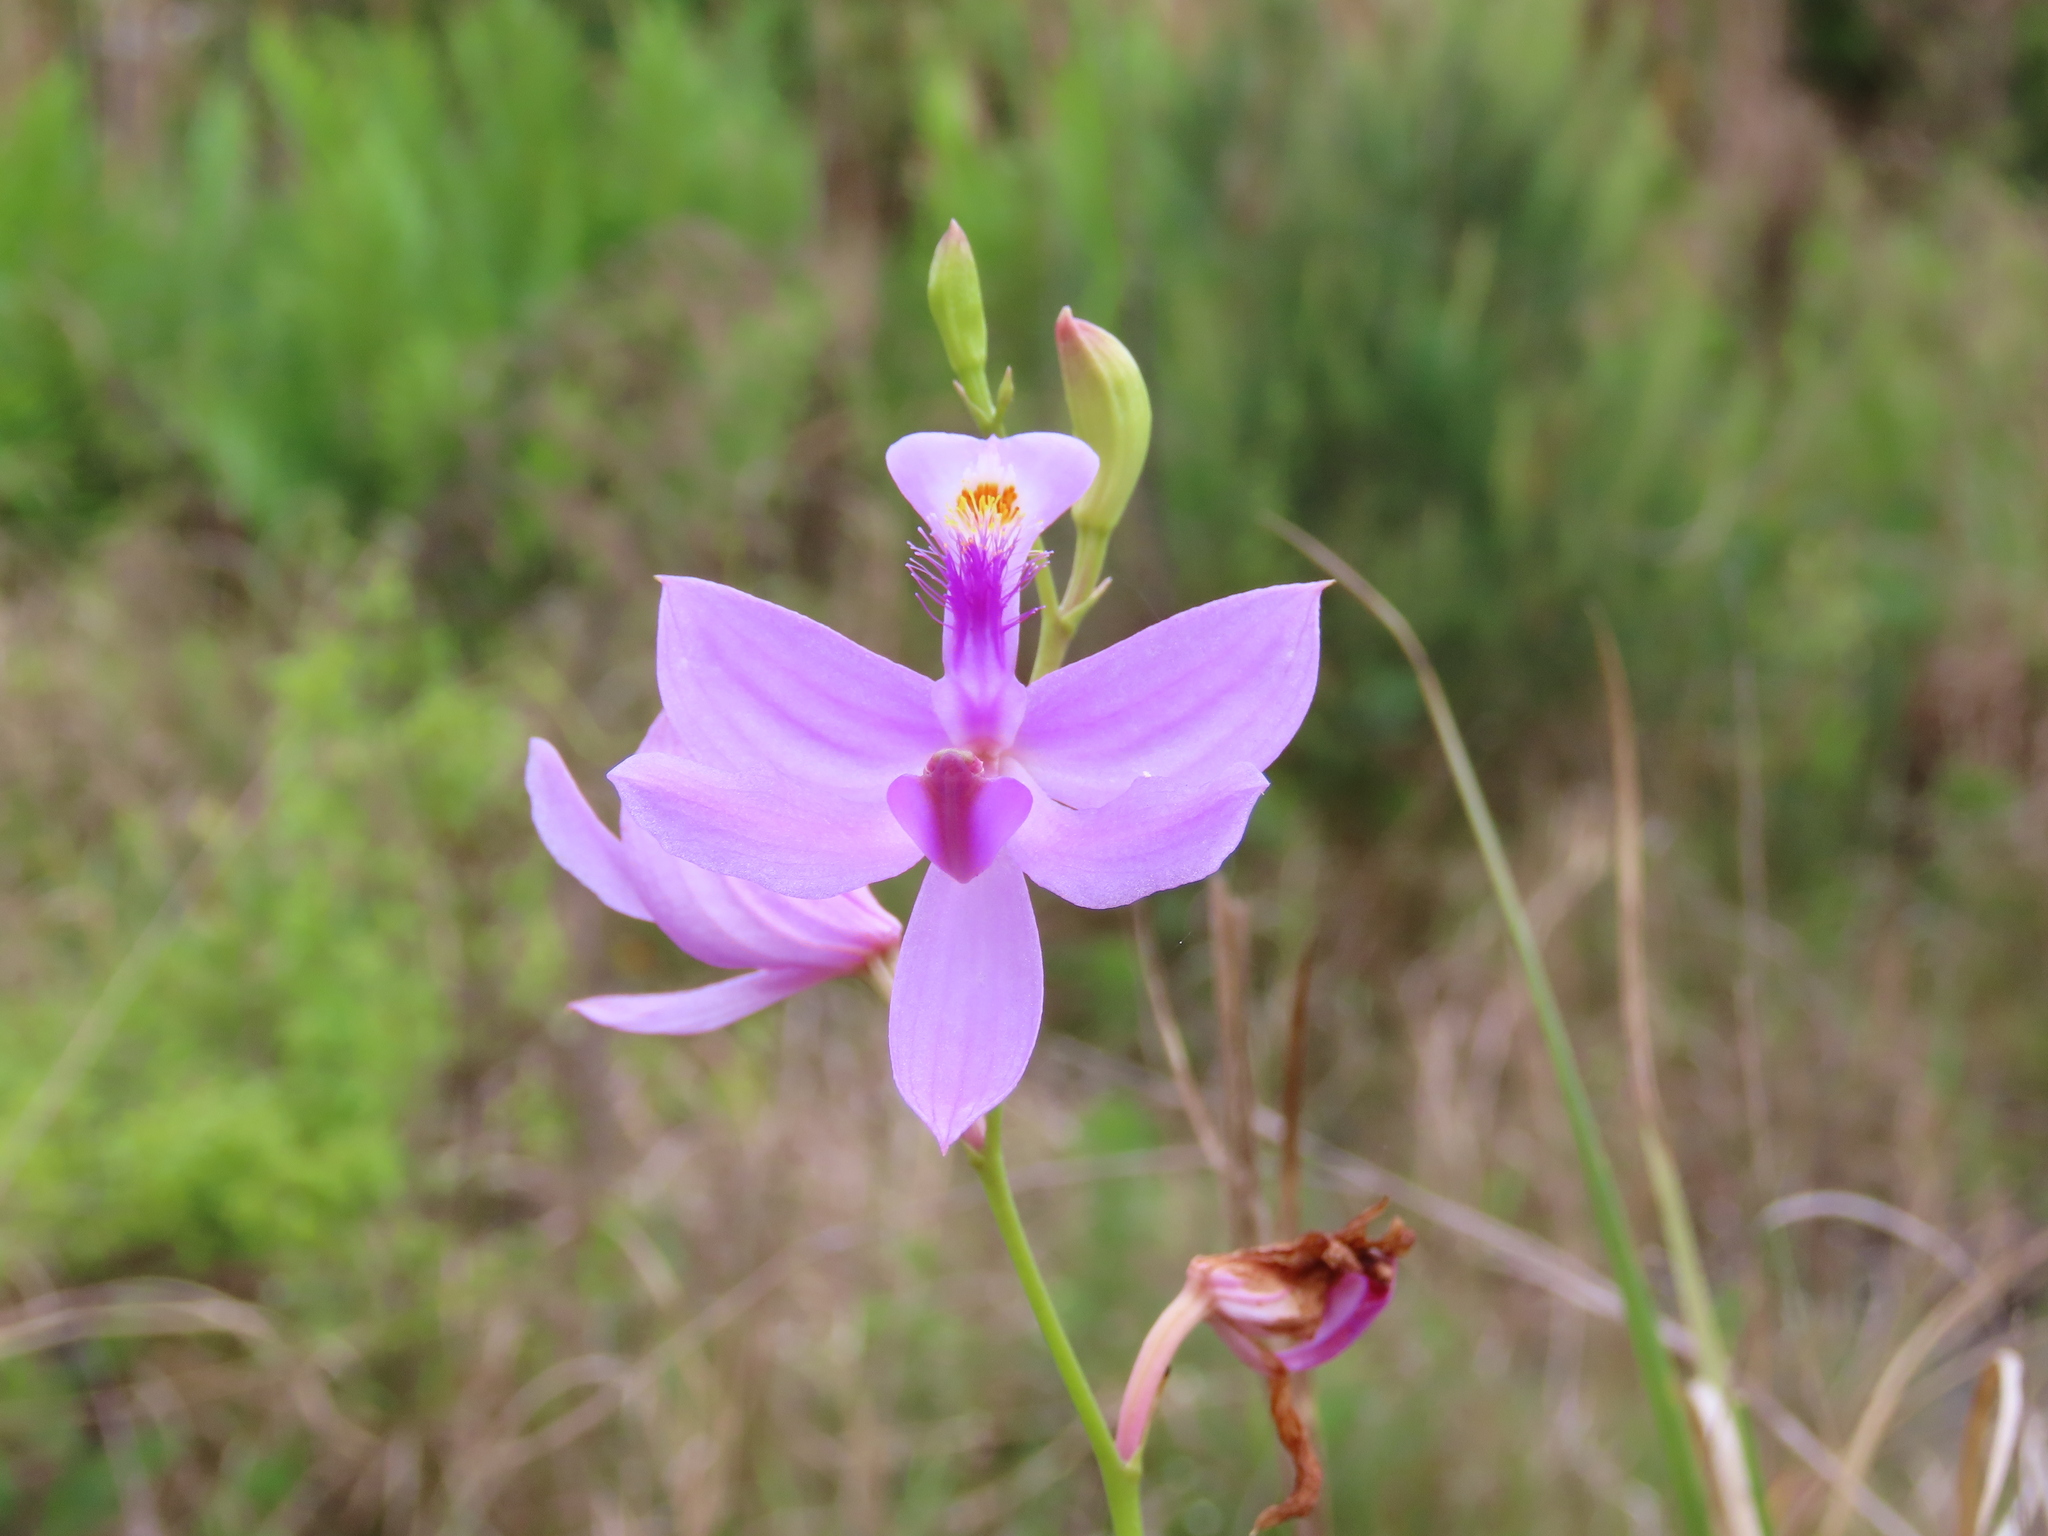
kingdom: Plantae
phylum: Tracheophyta
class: Liliopsida
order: Asparagales
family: Orchidaceae
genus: Calopogon
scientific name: Calopogon tuberosus
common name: Grass-pink
